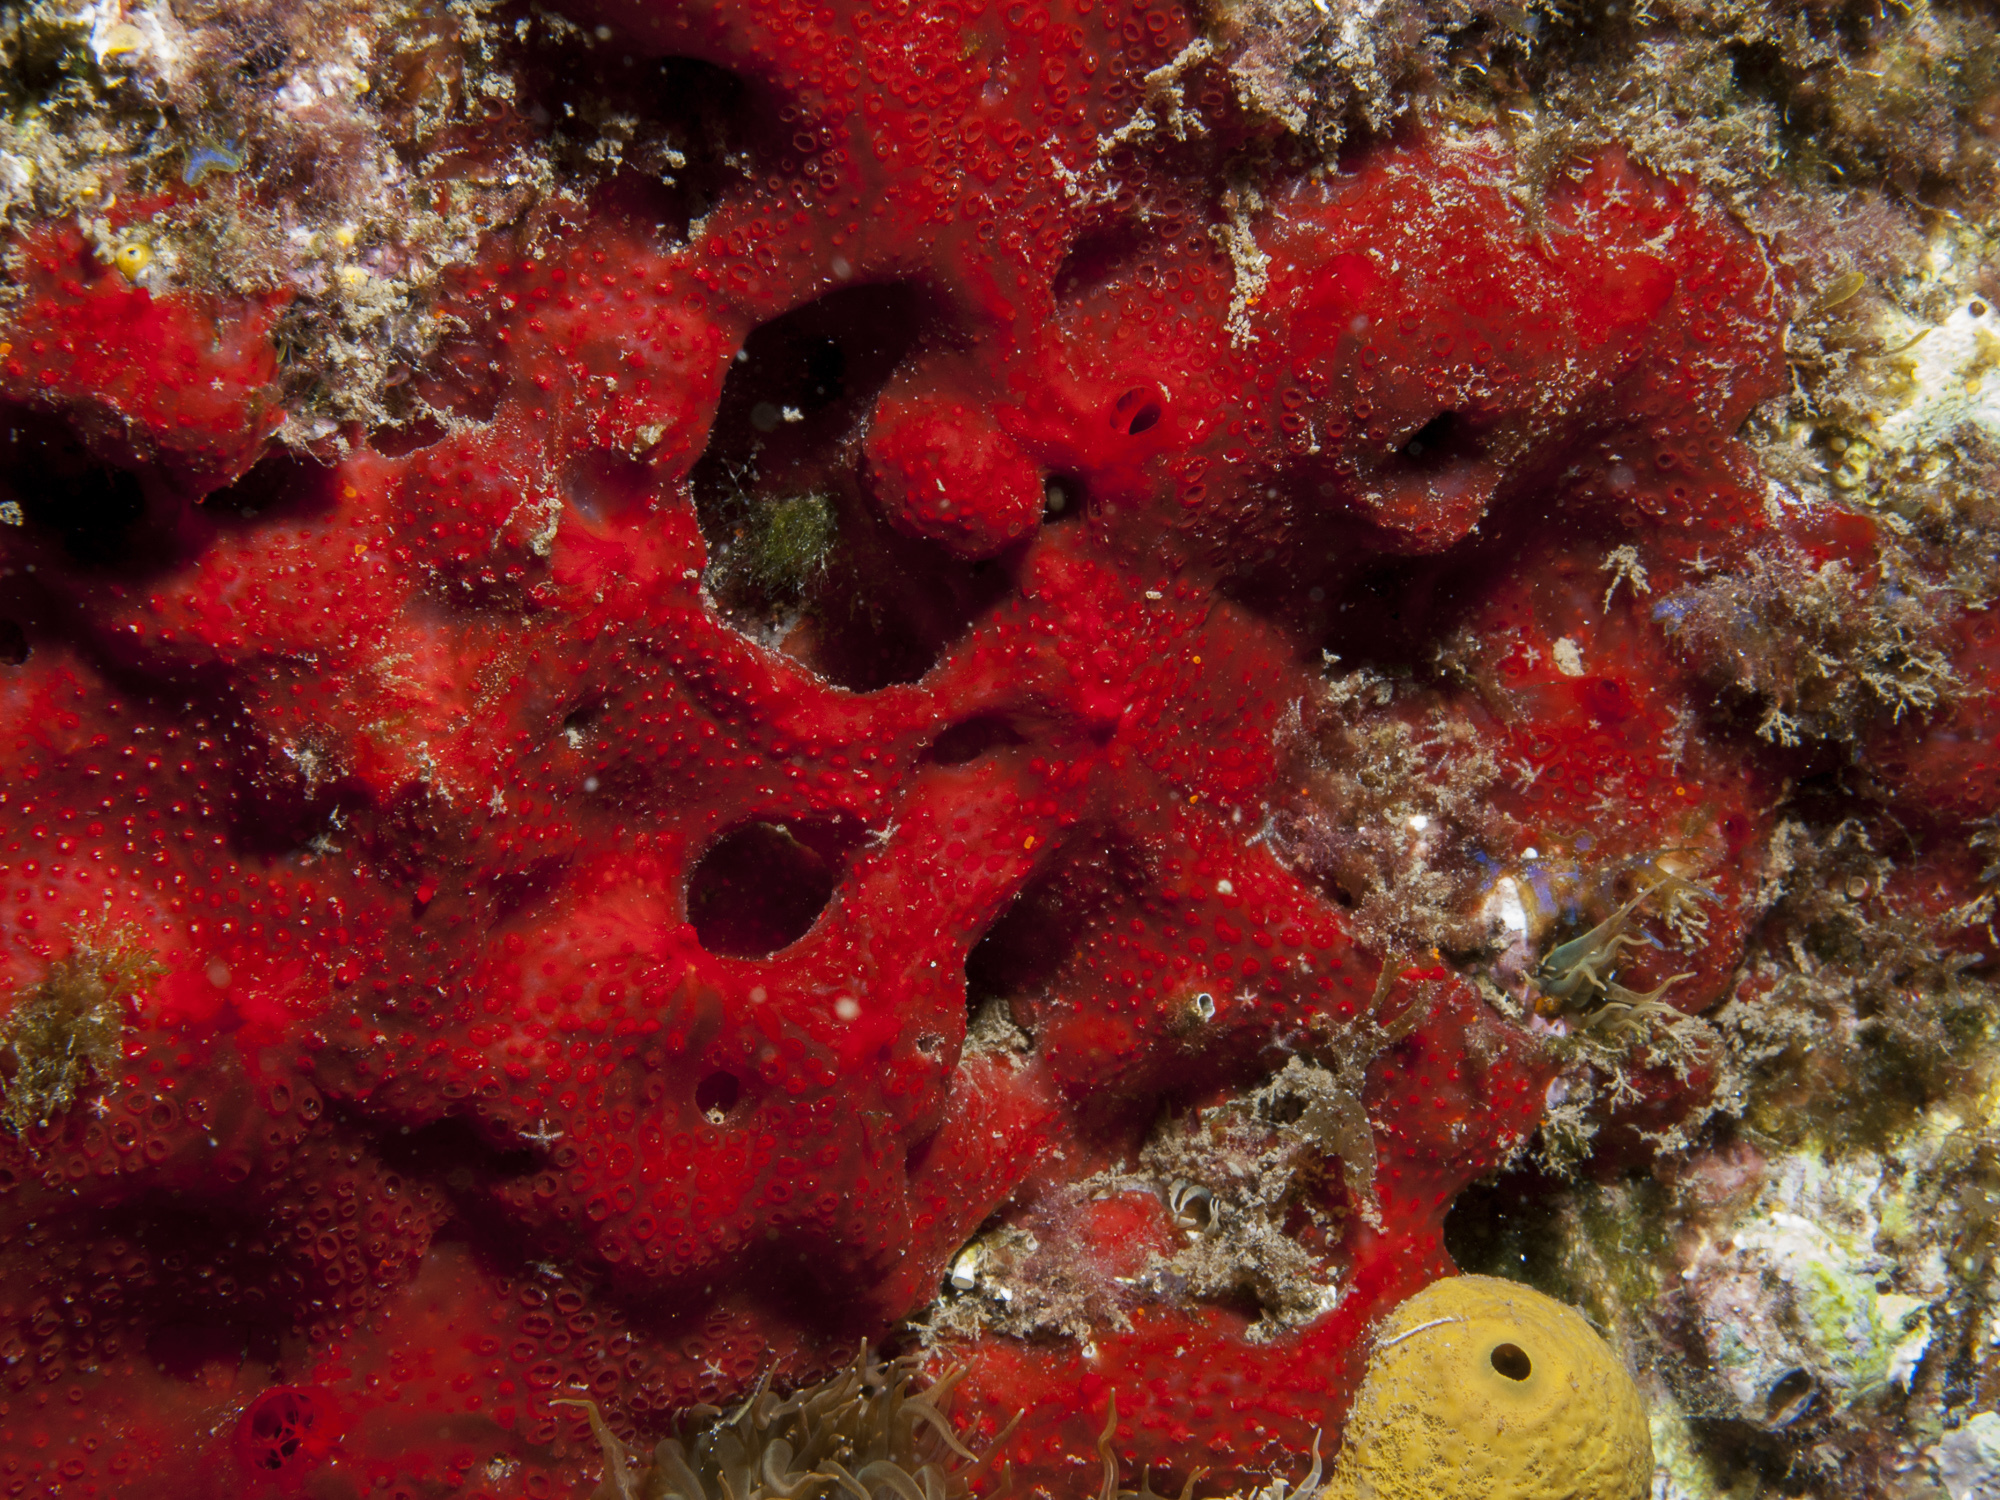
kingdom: Animalia
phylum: Porifera
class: Demospongiae
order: Poecilosclerida
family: Hymedesmiidae
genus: Hamigera
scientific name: Hamigera hamigera
